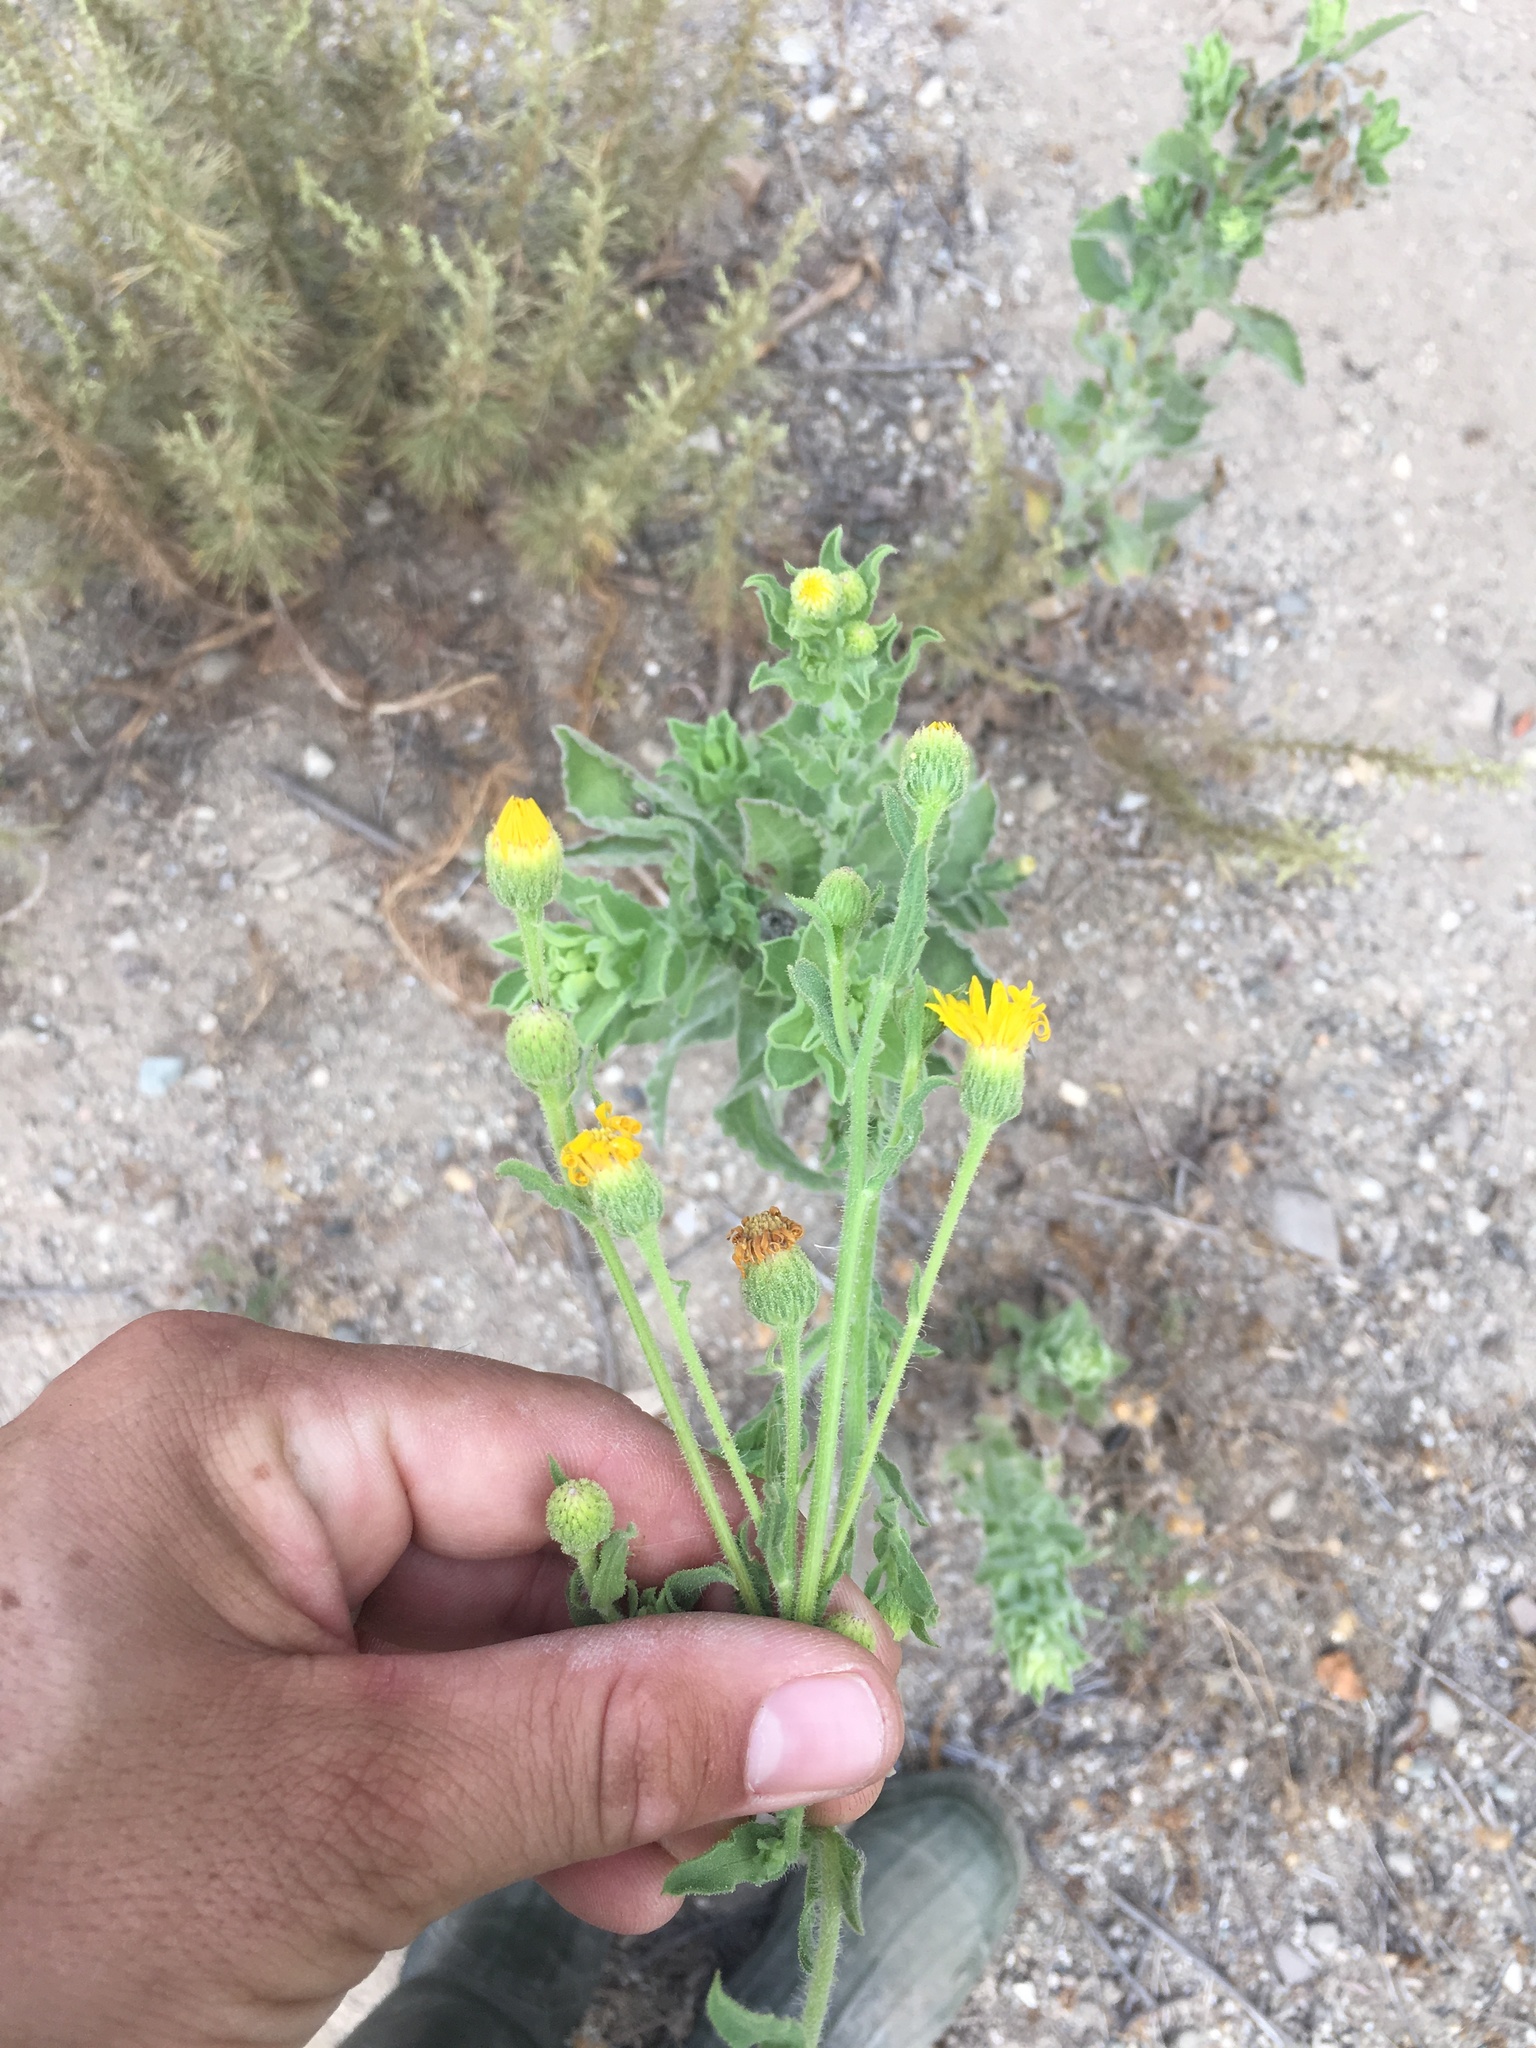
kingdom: Plantae
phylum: Tracheophyta
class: Magnoliopsida
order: Asterales
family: Asteraceae
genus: Heterotheca
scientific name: Heterotheca grandiflora
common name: Telegraphweed
